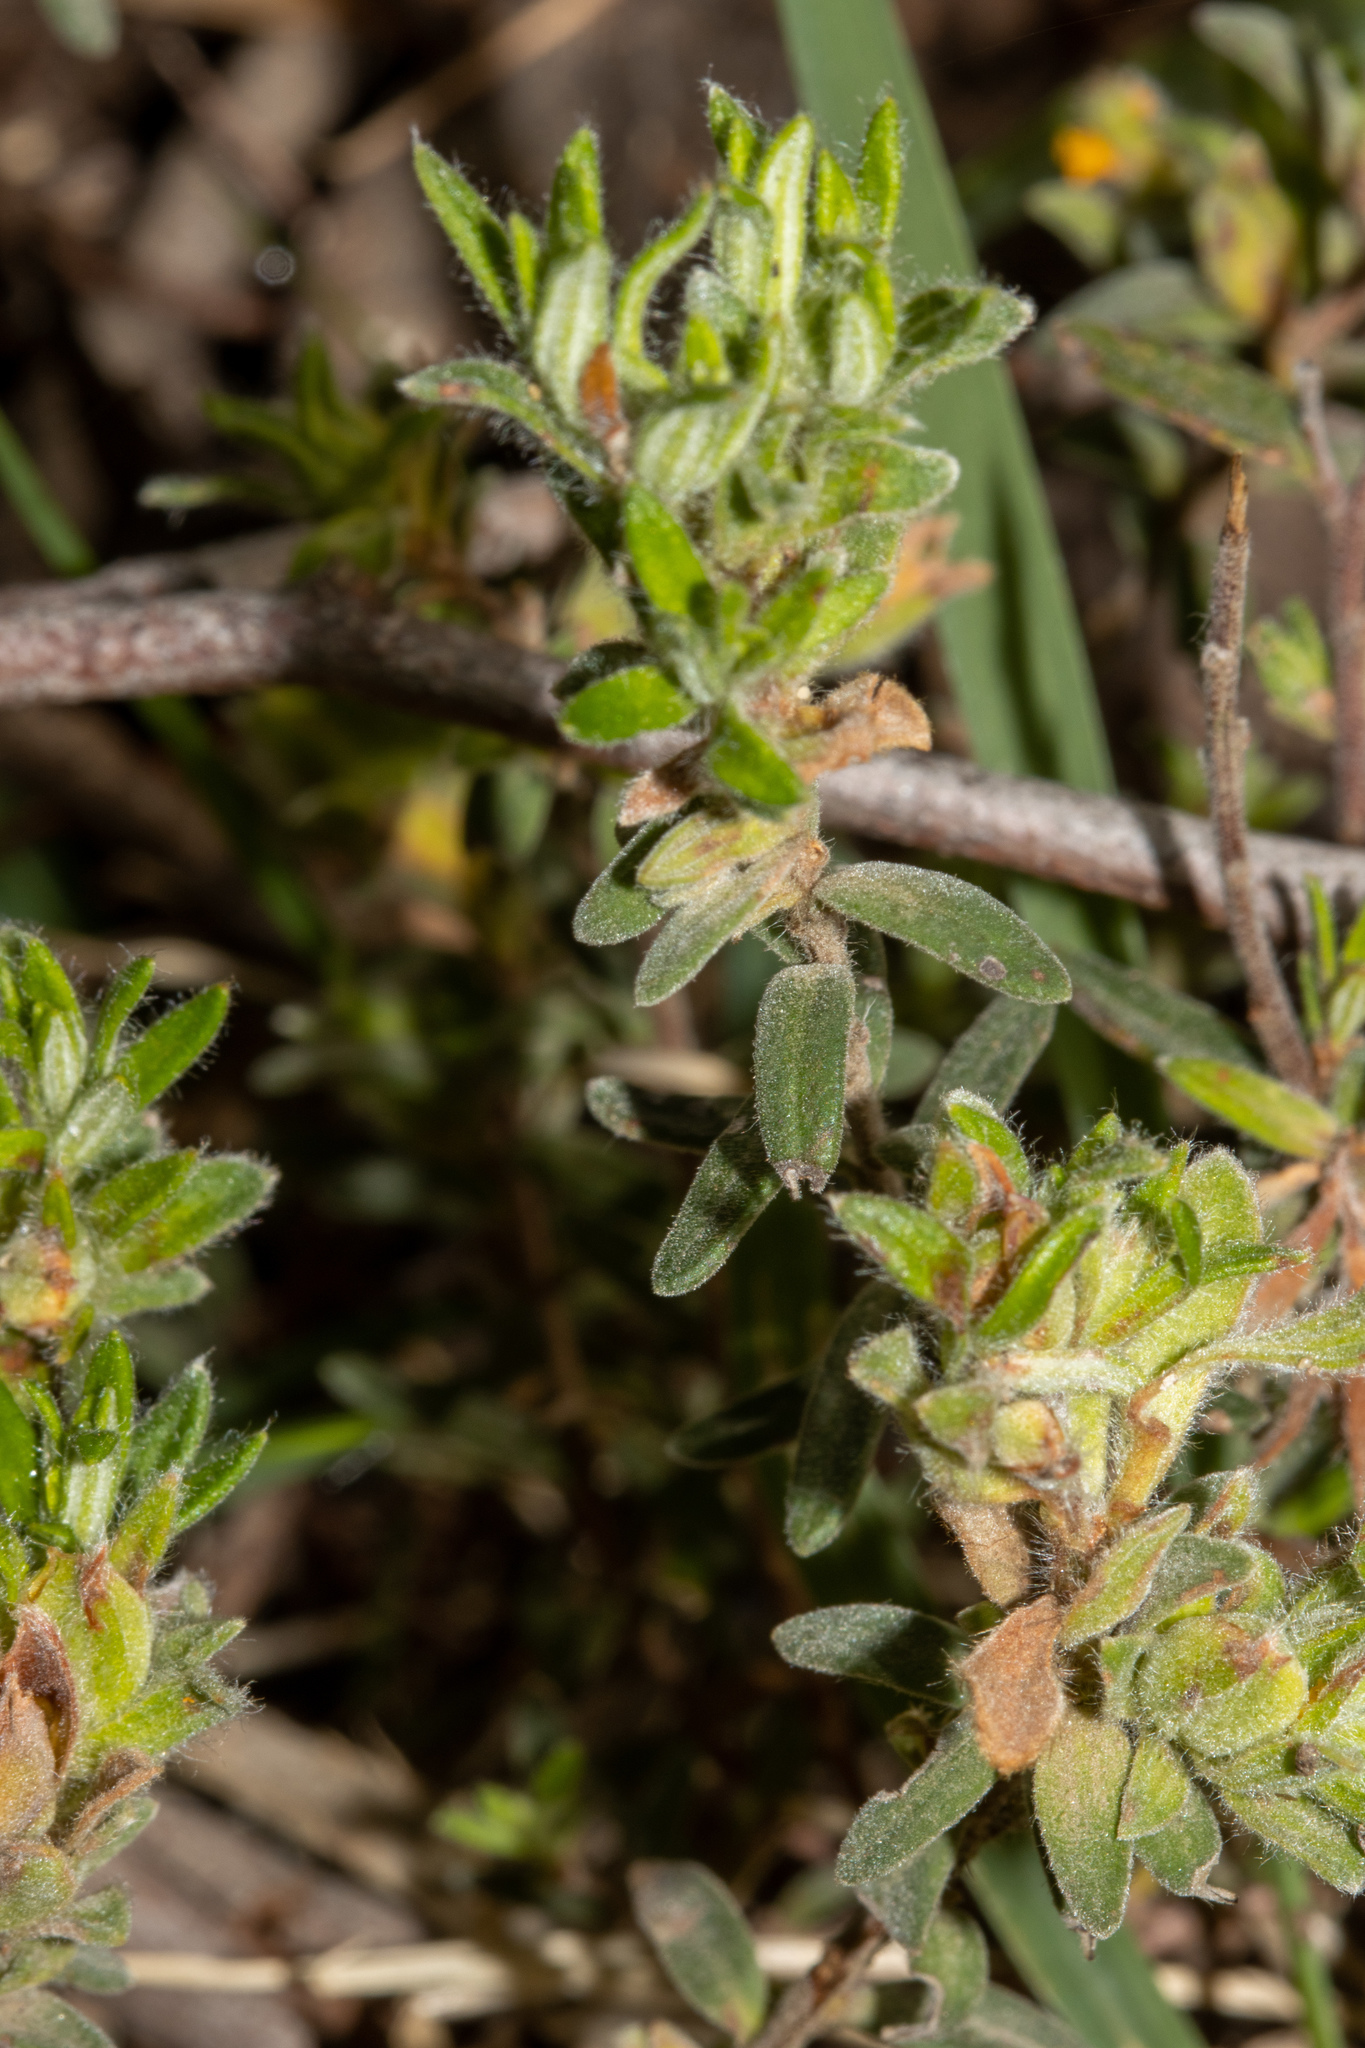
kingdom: Plantae
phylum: Tracheophyta
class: Magnoliopsida
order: Dilleniales
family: Dilleniaceae
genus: Hibbertia
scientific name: Hibbertia crinita
